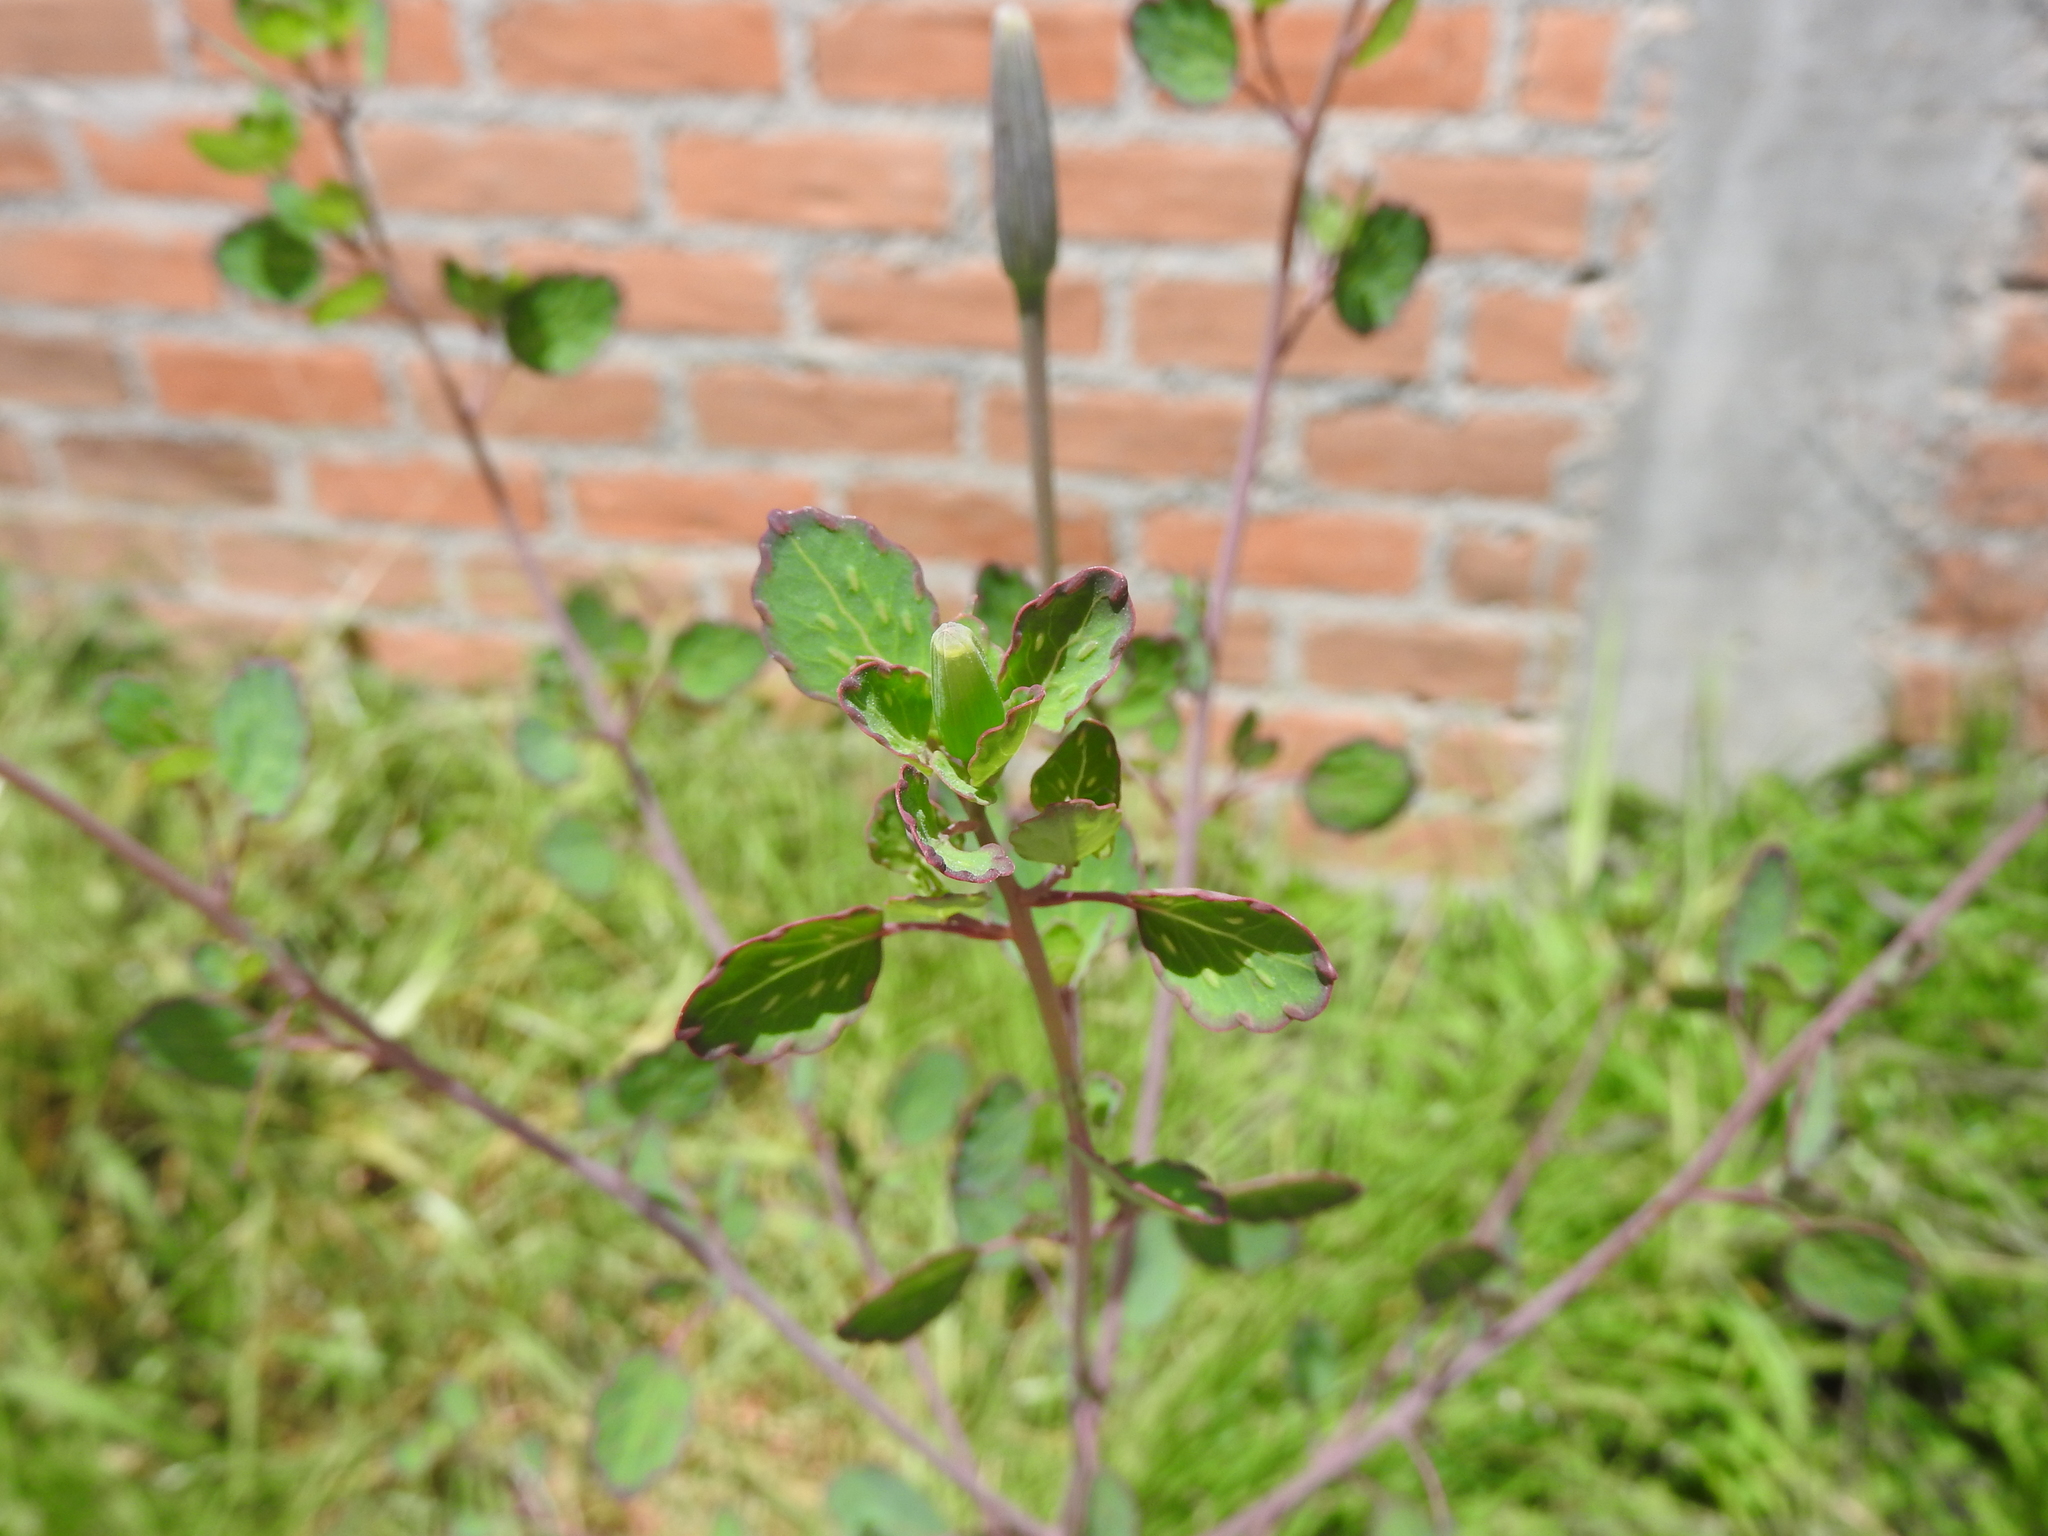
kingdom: Plantae
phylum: Tracheophyta
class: Magnoliopsida
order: Asterales
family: Asteraceae
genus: Porophyllum
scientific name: Porophyllum ruderale
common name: Yerba porosa
